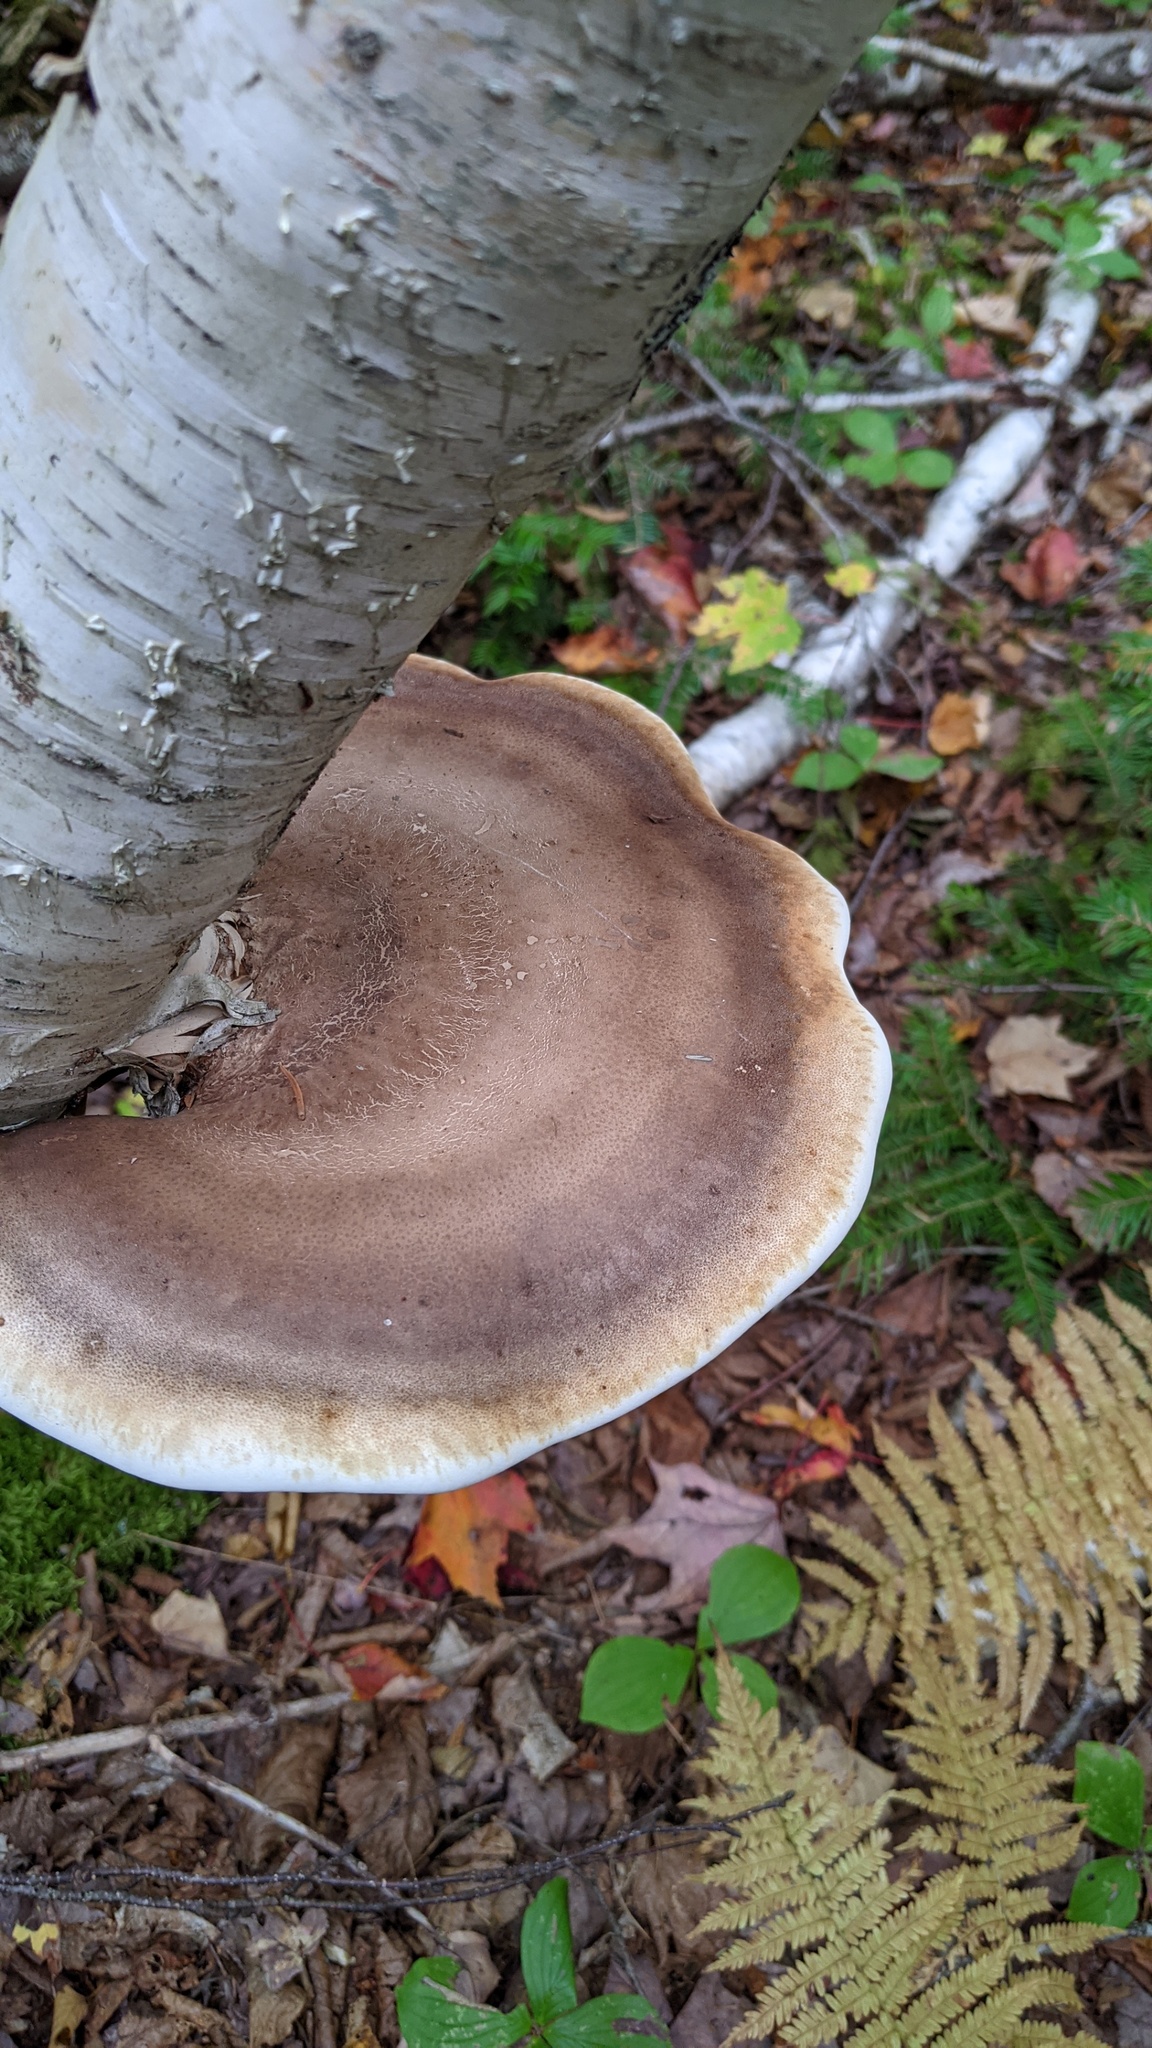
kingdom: Fungi
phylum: Basidiomycota
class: Agaricomycetes
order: Polyporales
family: Fomitopsidaceae
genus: Fomitopsis
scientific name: Fomitopsis betulina
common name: Birch polypore
